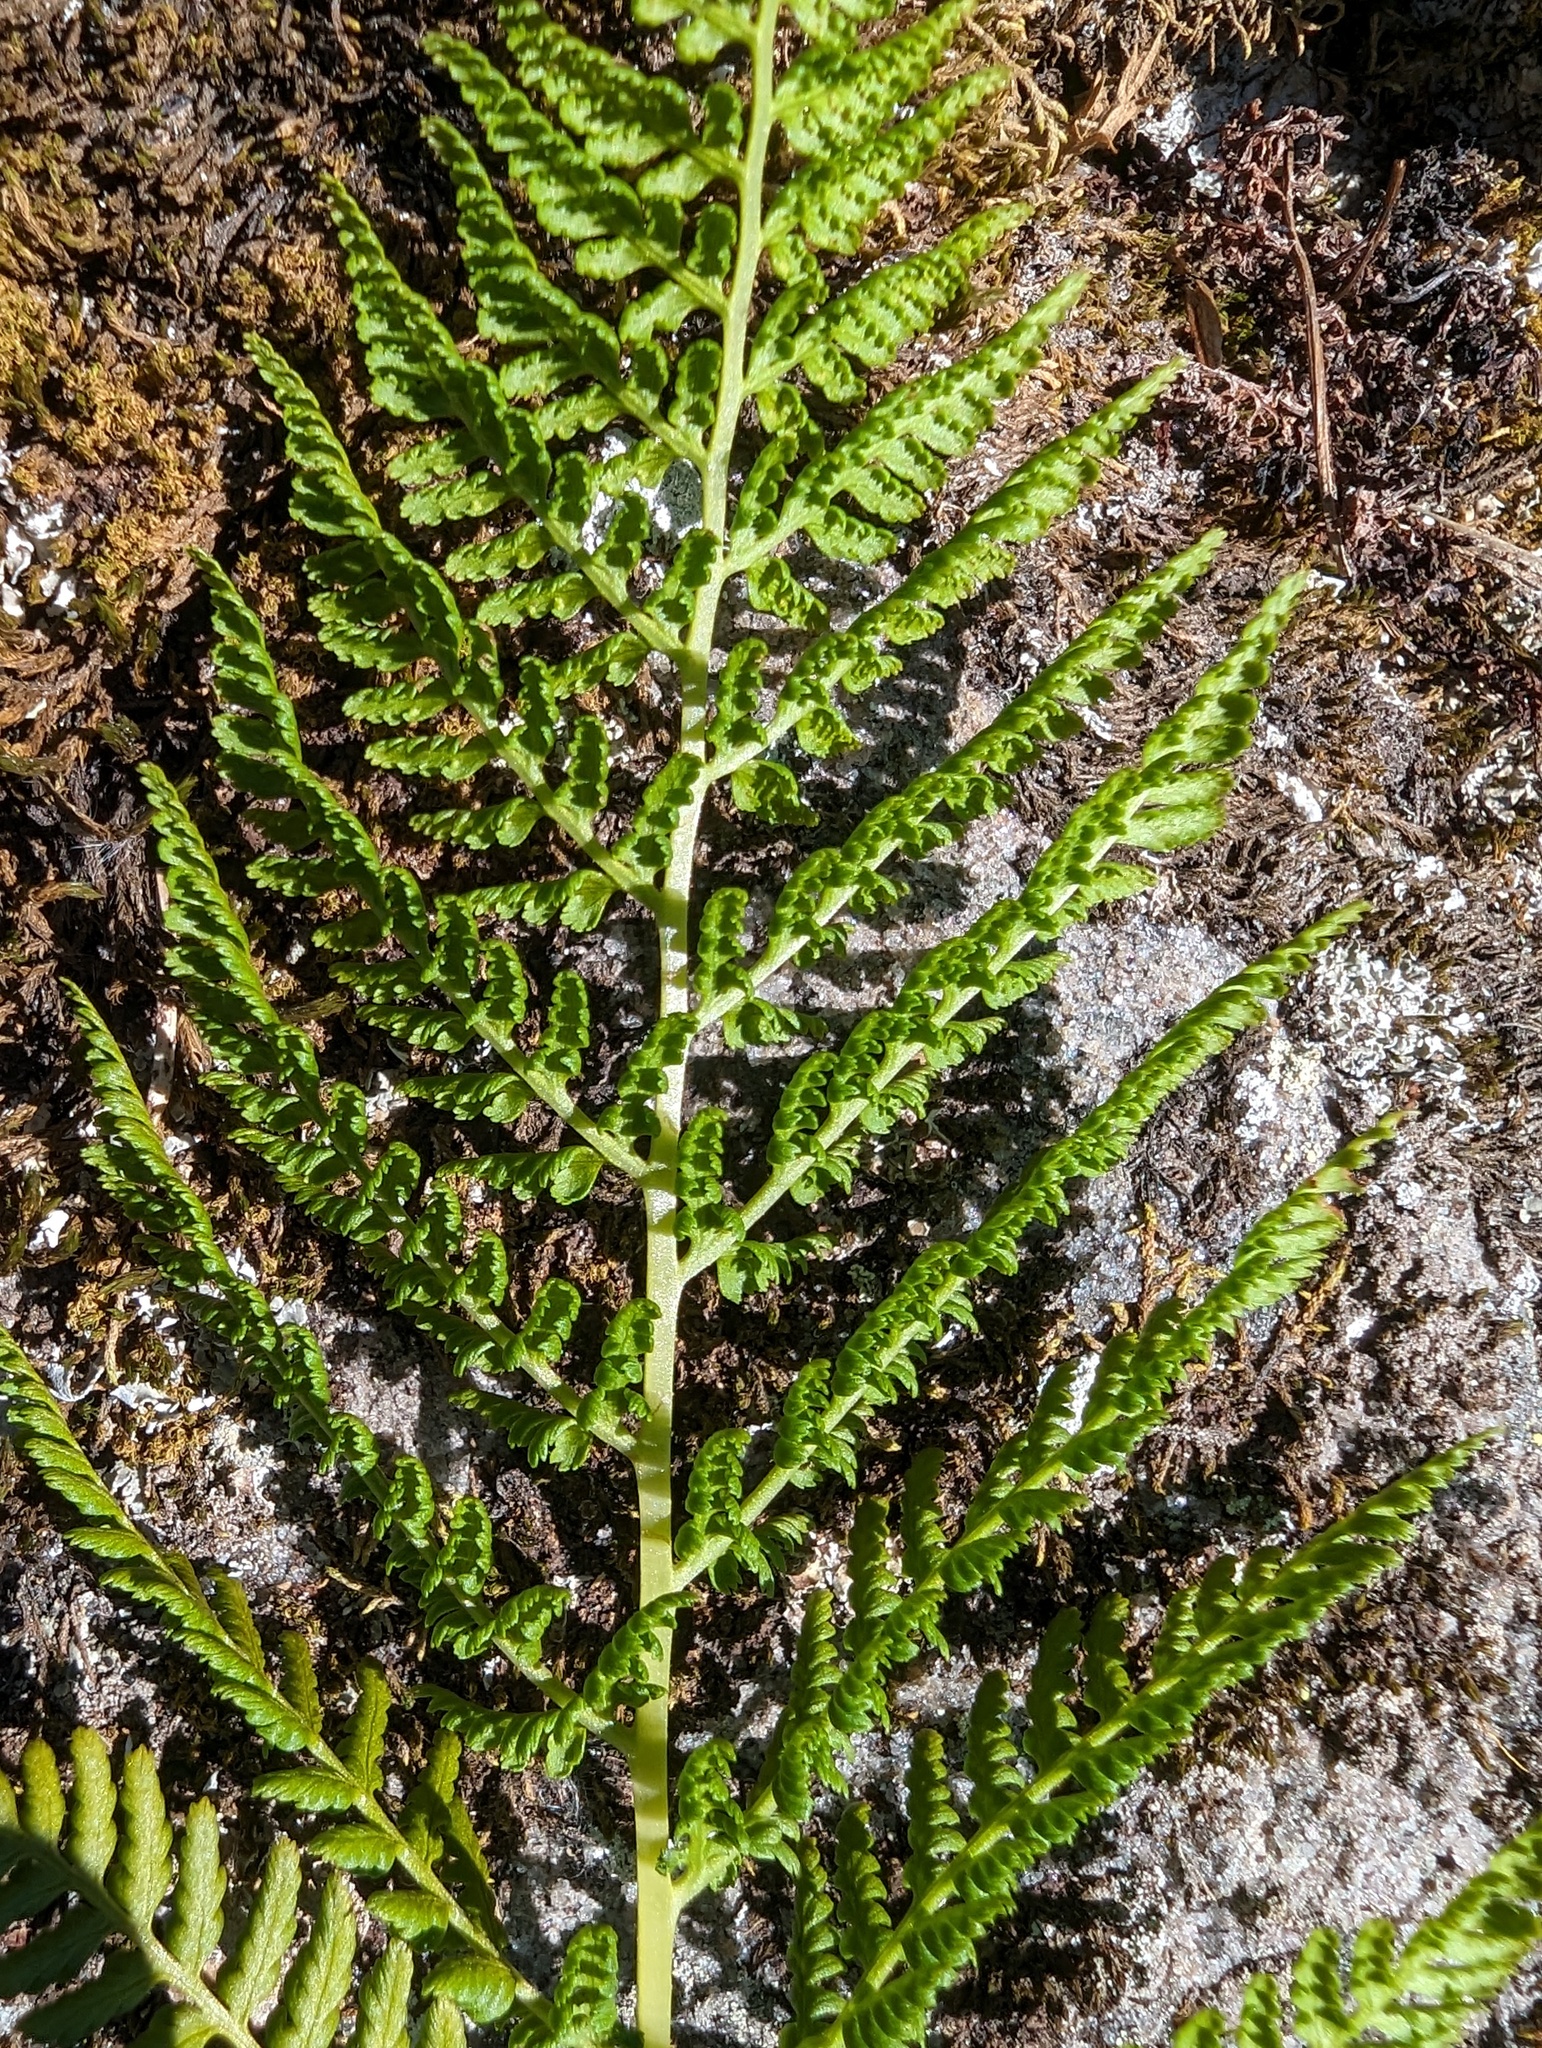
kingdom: Plantae
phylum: Tracheophyta
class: Polypodiopsida
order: Polypodiales
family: Athyriaceae
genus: Athyrium
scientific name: Athyrium americanum
